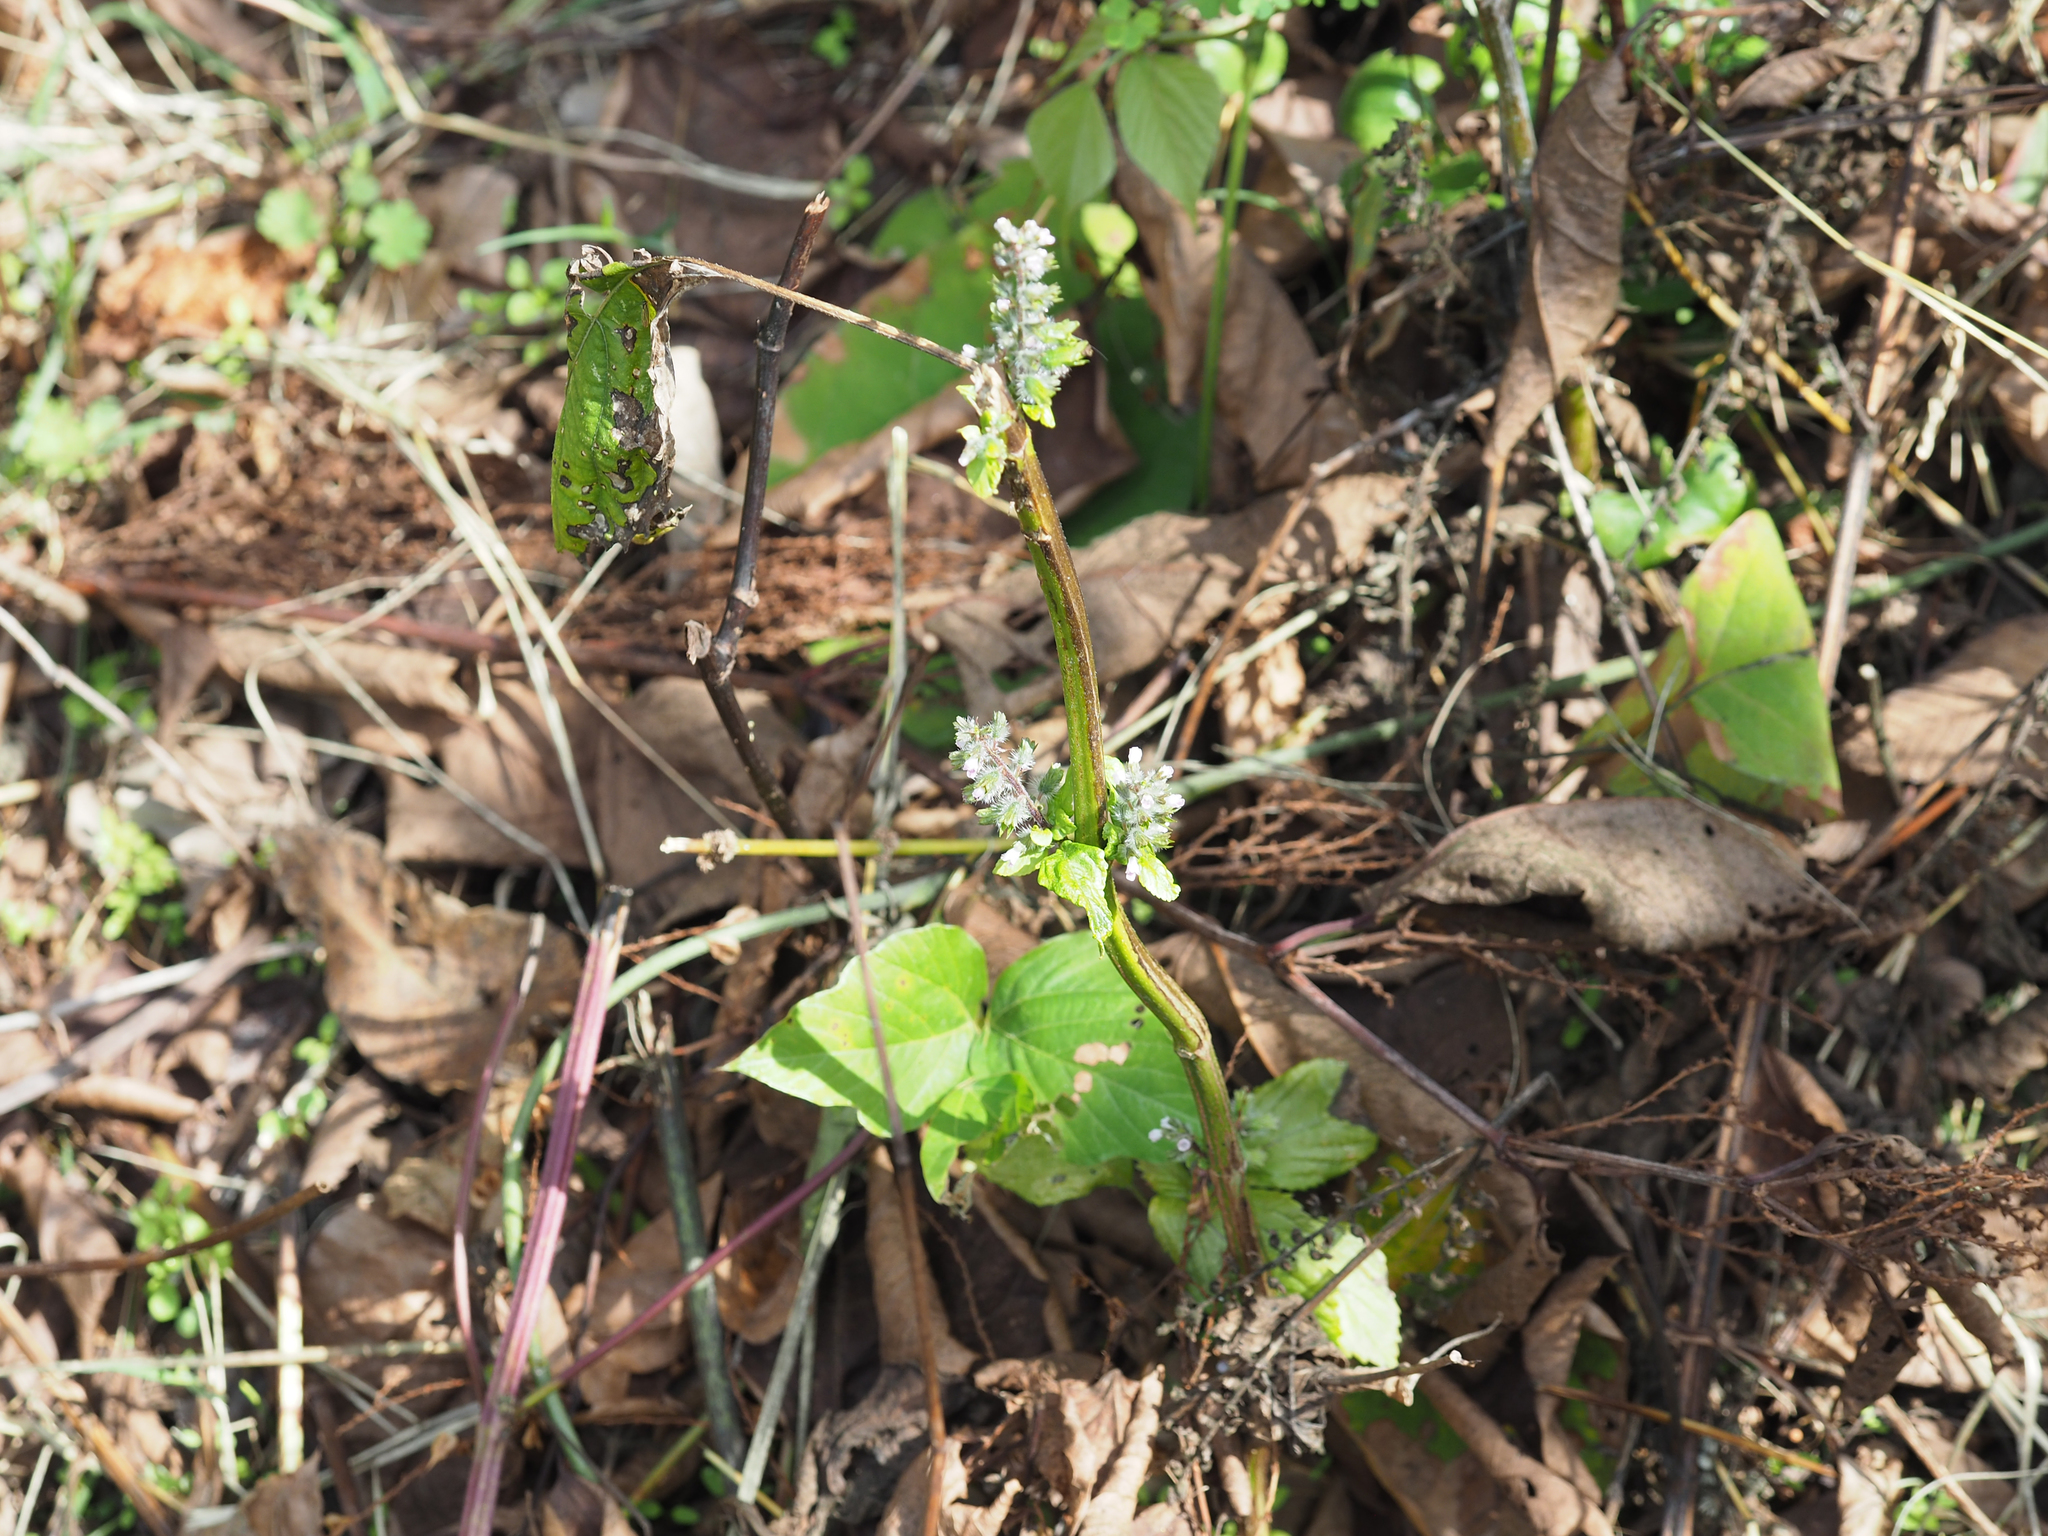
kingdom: Plantae
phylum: Tracheophyta
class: Magnoliopsida
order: Lamiales
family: Lamiaceae
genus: Perilla
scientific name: Perilla frutescens
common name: Perilla
